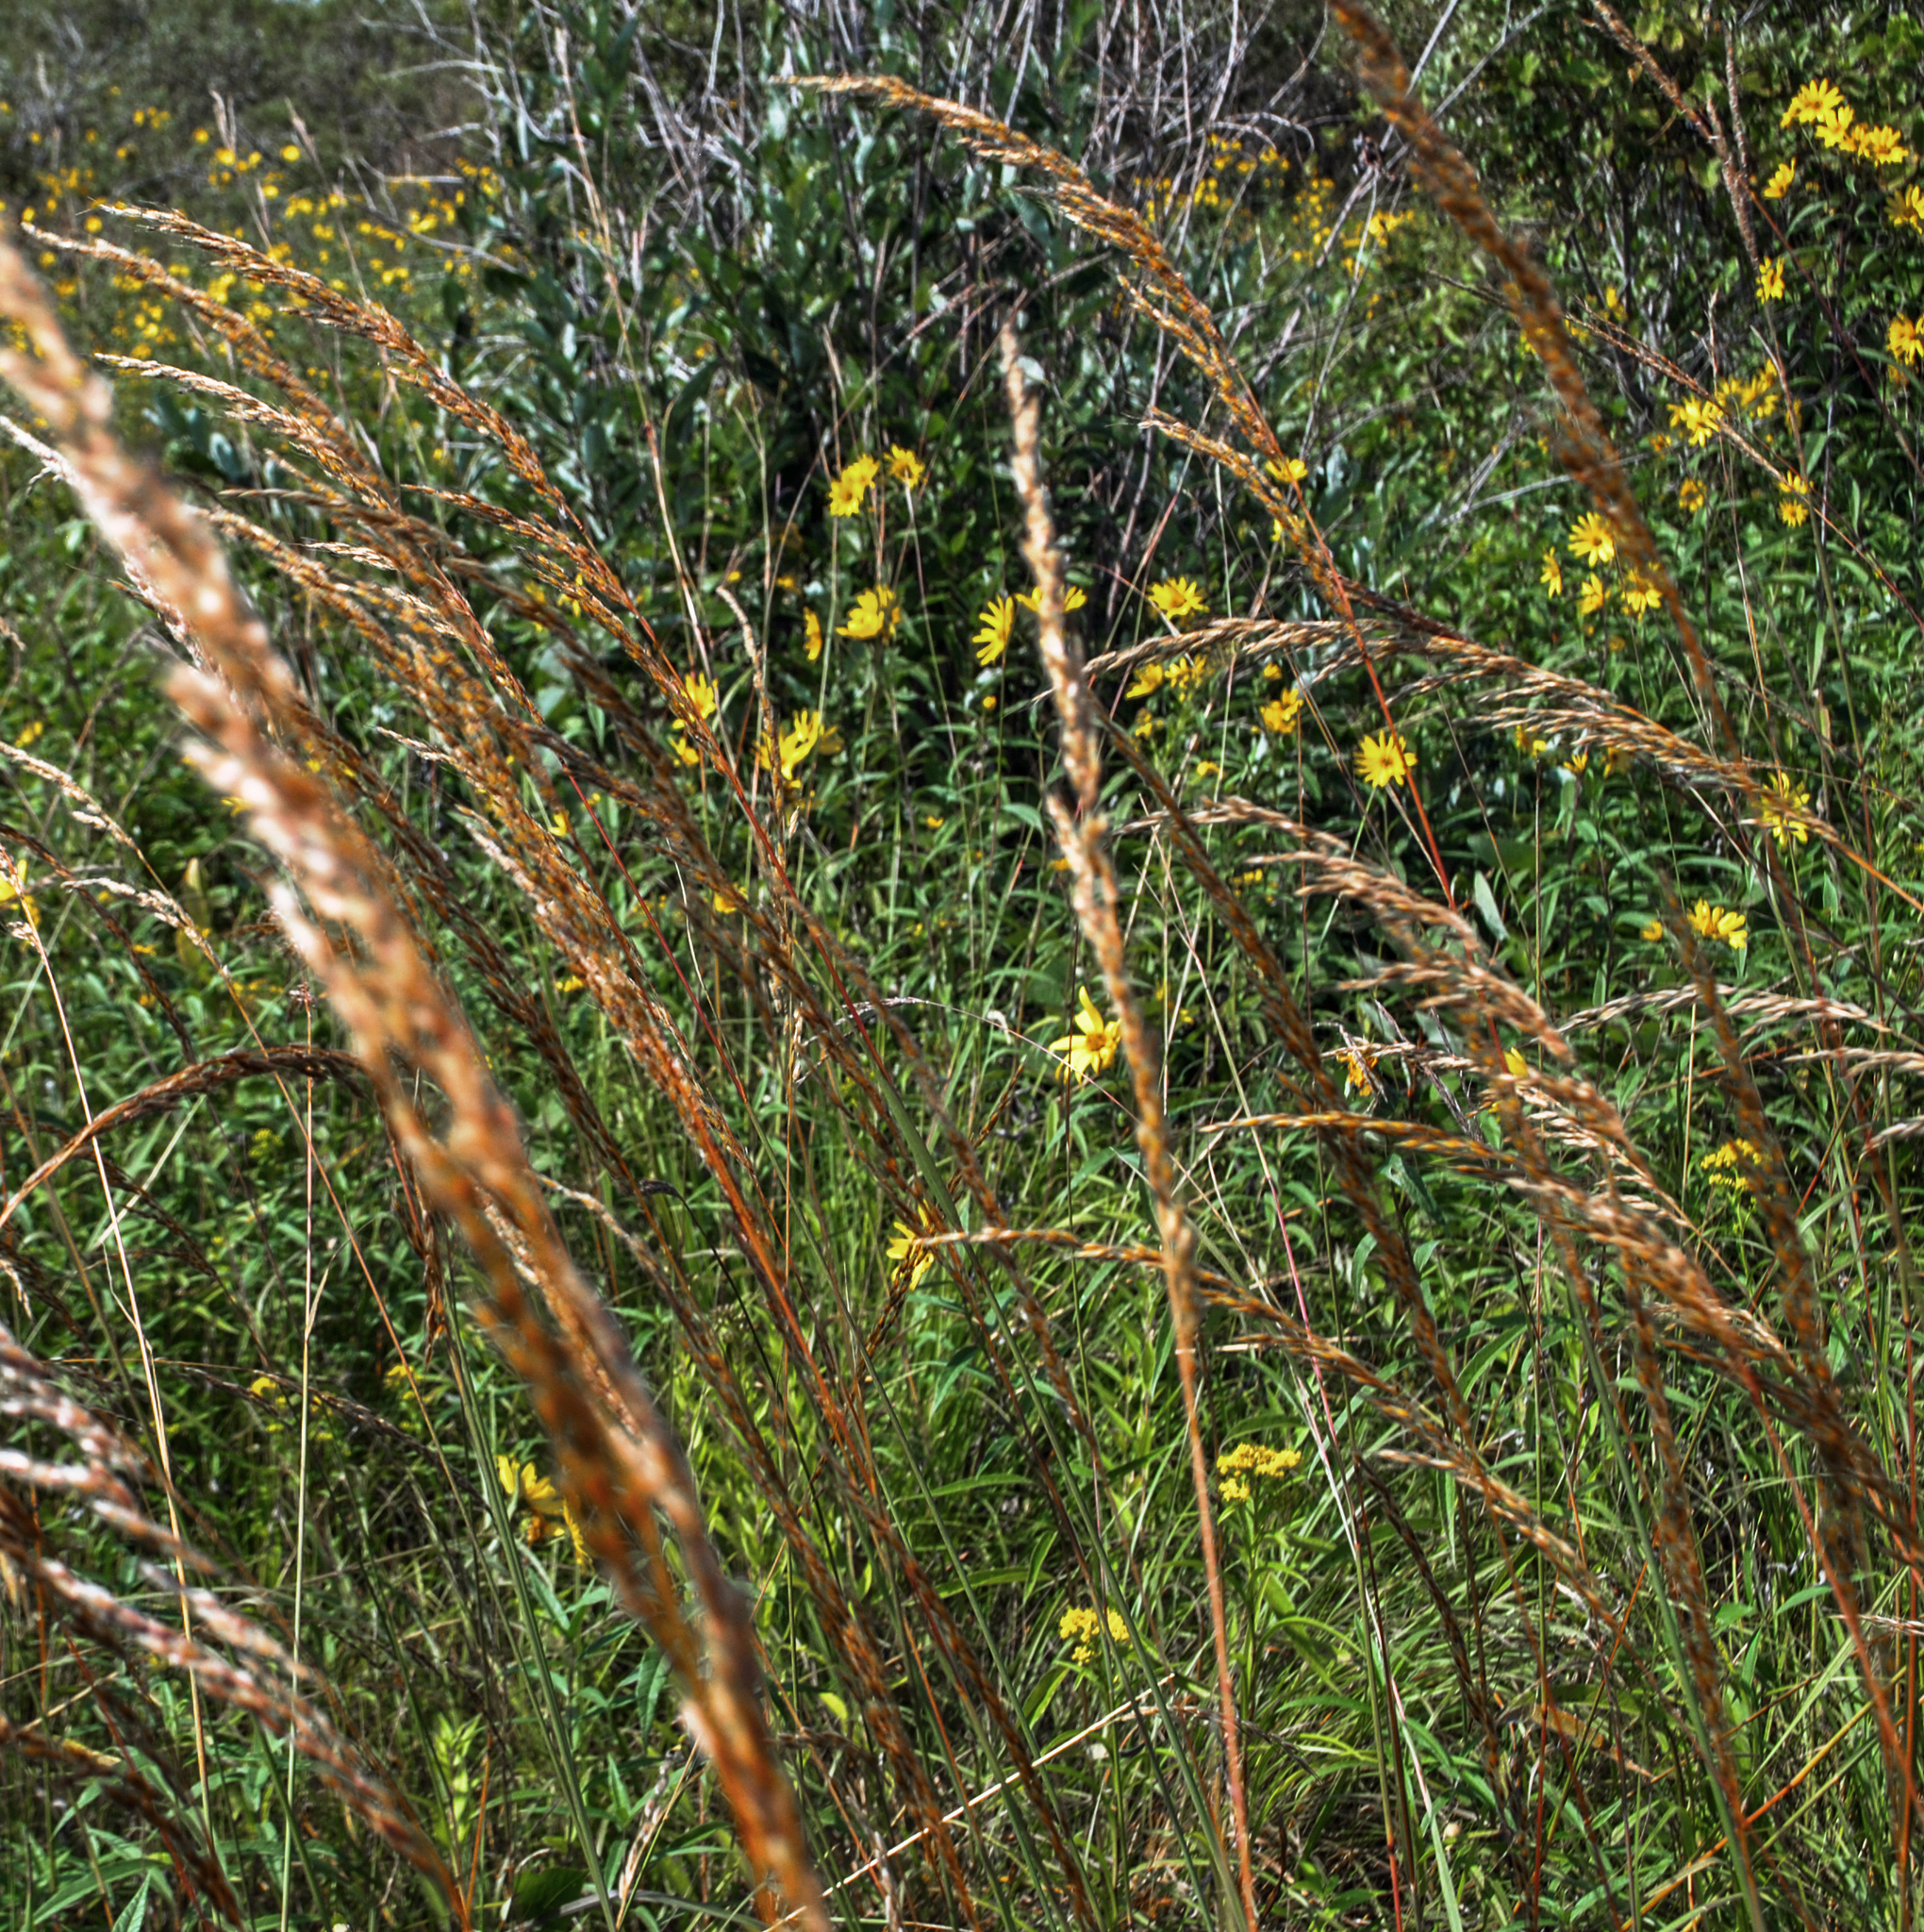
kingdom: Plantae
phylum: Tracheophyta
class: Liliopsida
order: Poales
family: Poaceae
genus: Sorghastrum
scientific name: Sorghastrum nutans
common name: Indian grass
